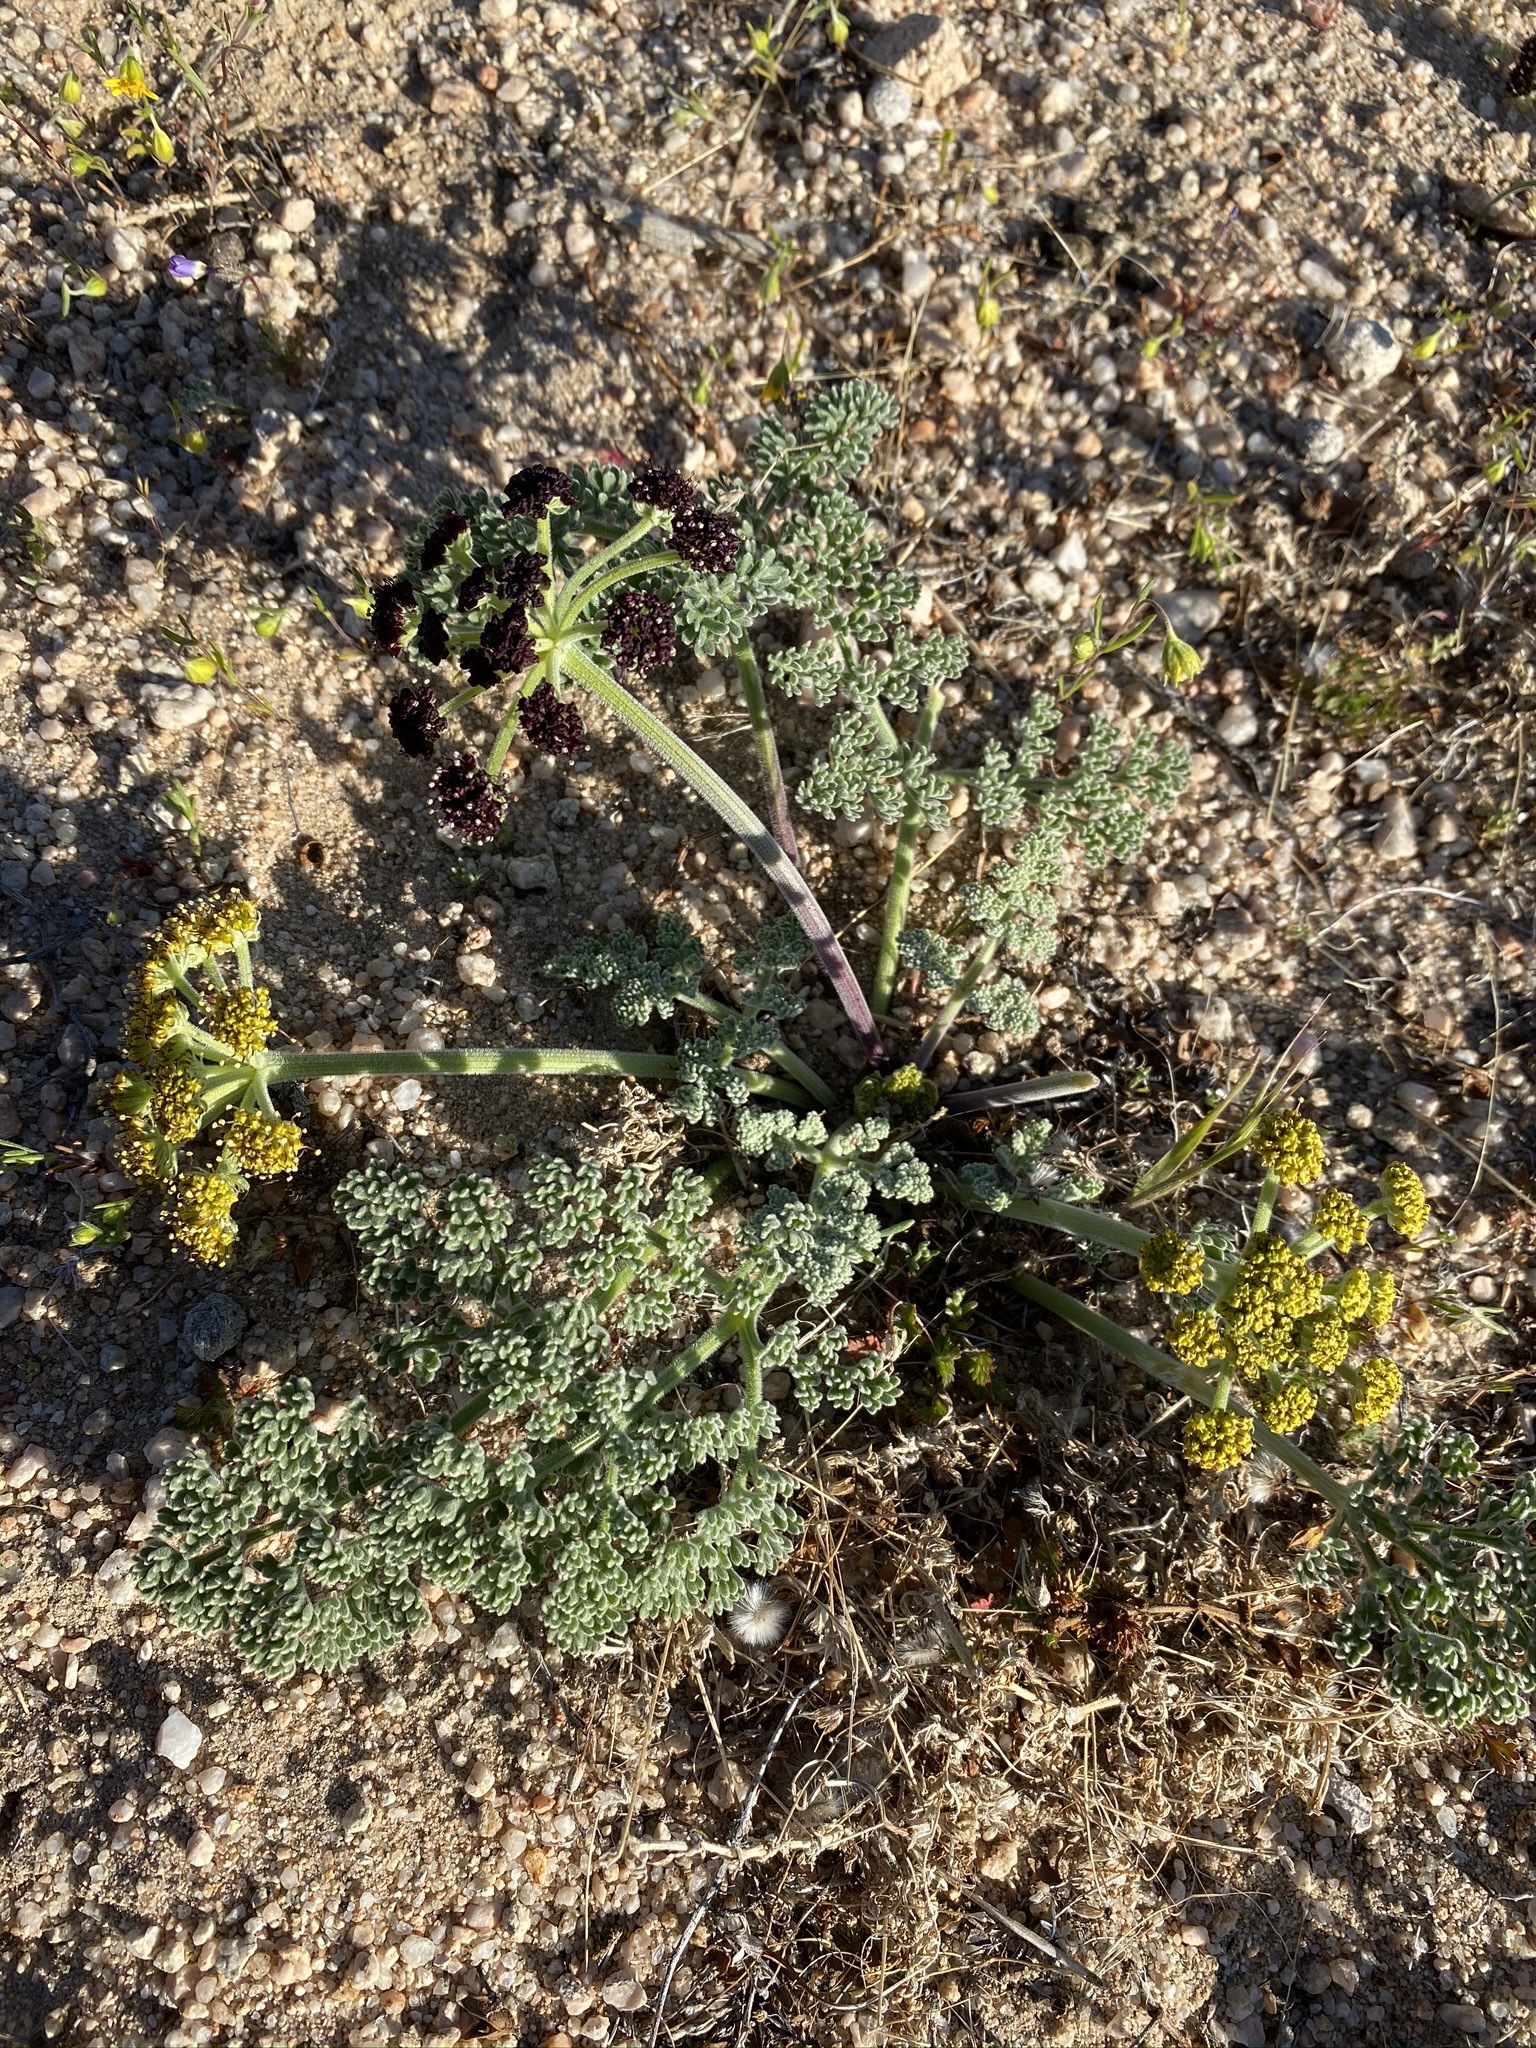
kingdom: Plantae
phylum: Tracheophyta
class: Magnoliopsida
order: Apiales
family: Apiaceae
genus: Lomatium
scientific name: Lomatium mohavense
